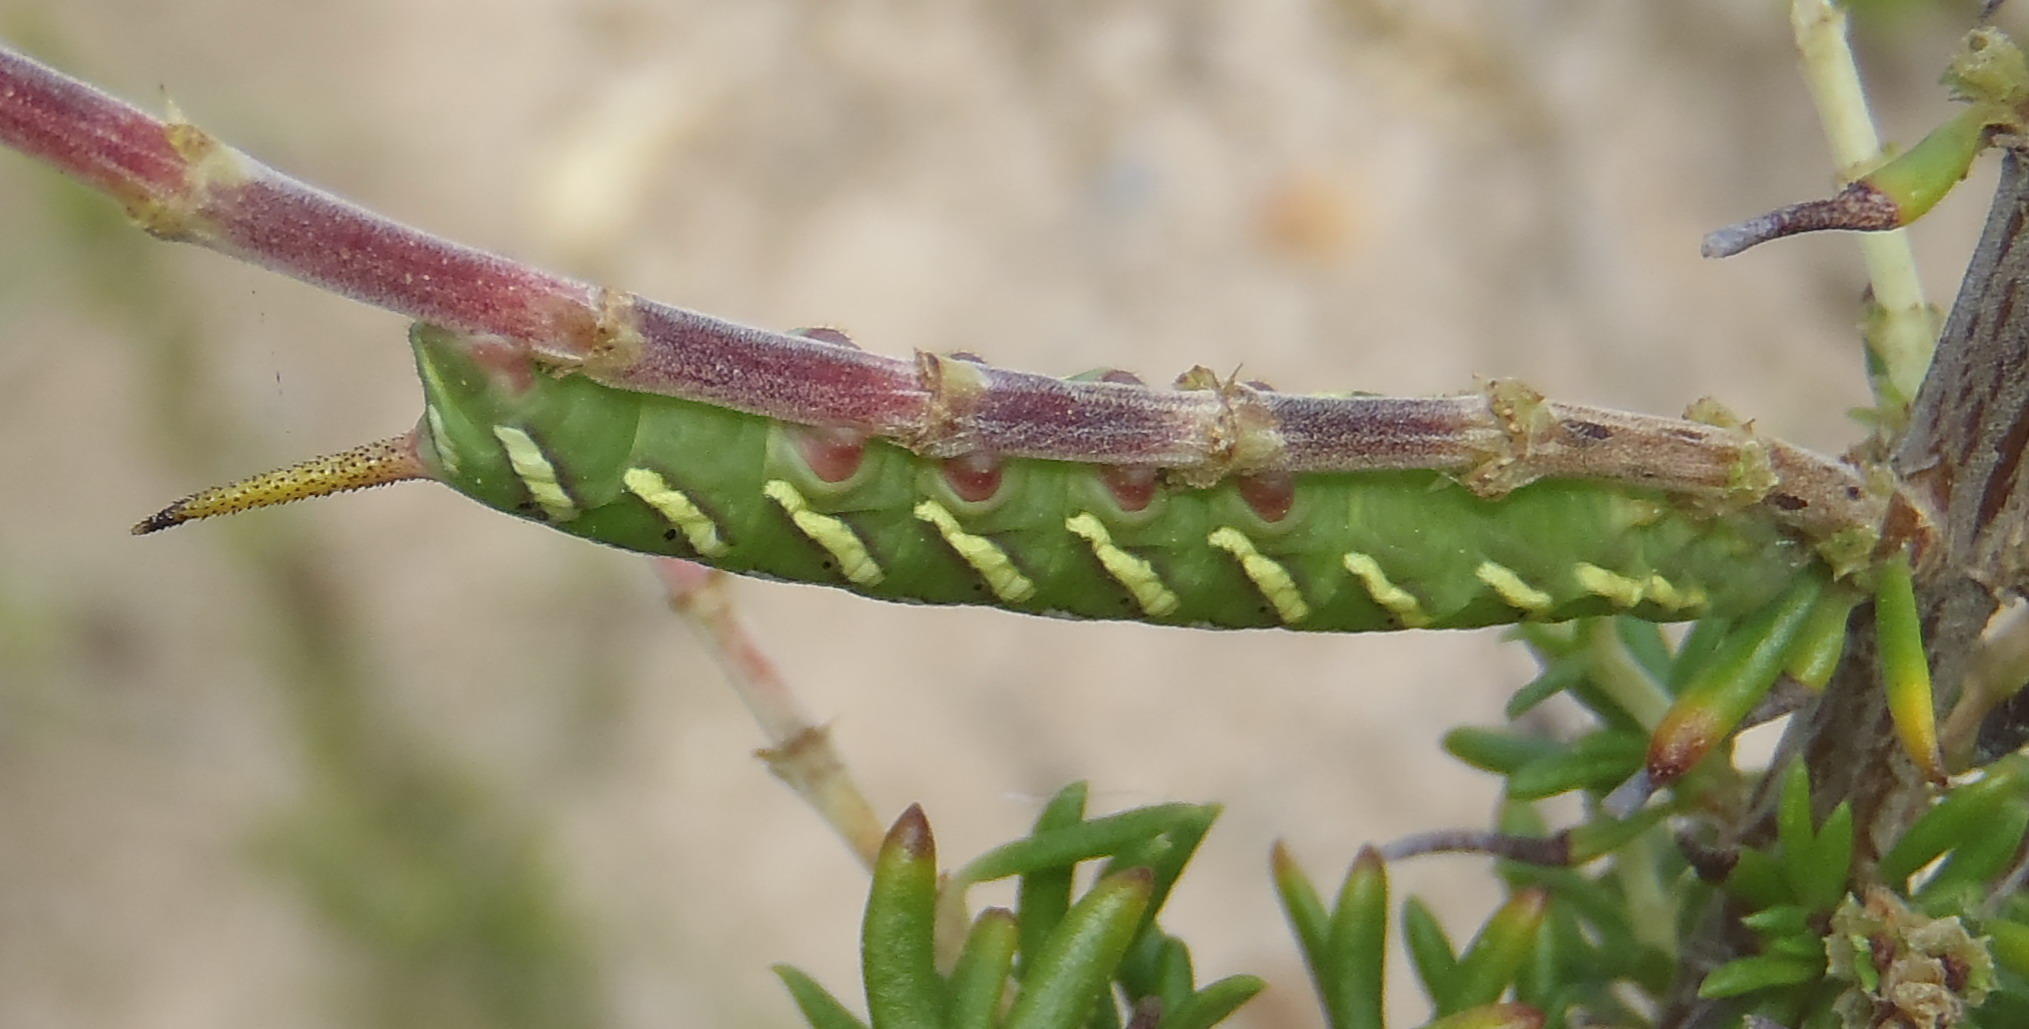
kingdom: Animalia
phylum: Arthropoda
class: Insecta
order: Lepidoptera
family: Sphingidae
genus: Temnora
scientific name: Temnora pylas
